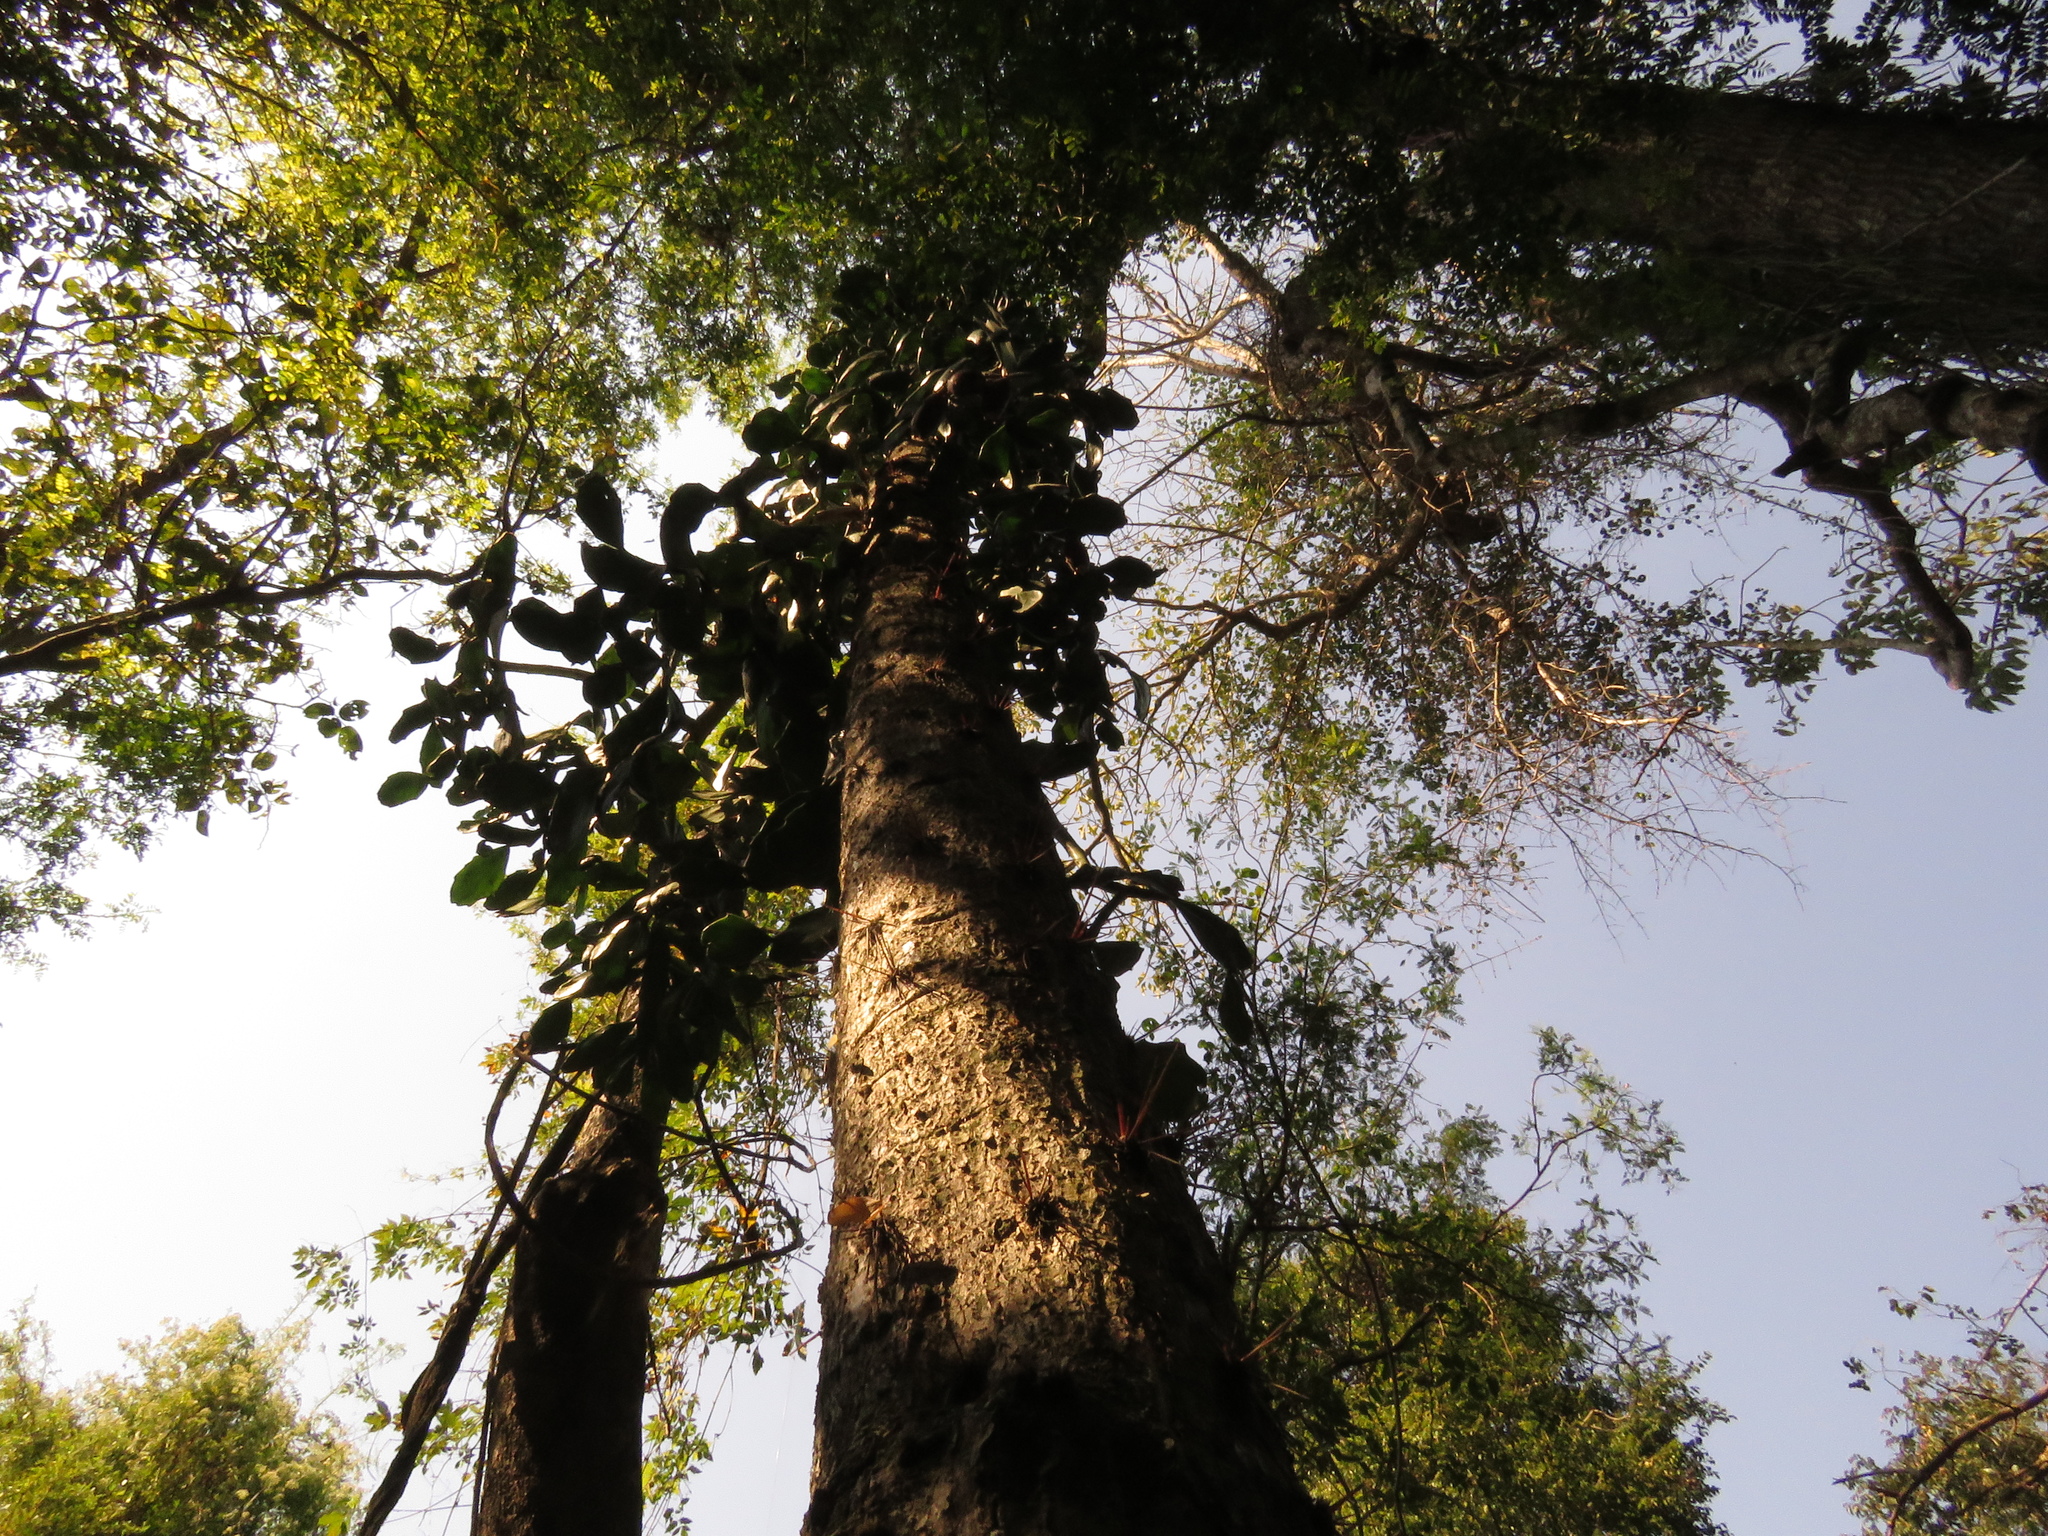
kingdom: Plantae
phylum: Tracheophyta
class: Magnoliopsida
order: Caryophyllales
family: Cactaceae
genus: Brasiliopuntia
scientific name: Brasiliopuntia brasiliensis
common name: Brazilian pricklypear
